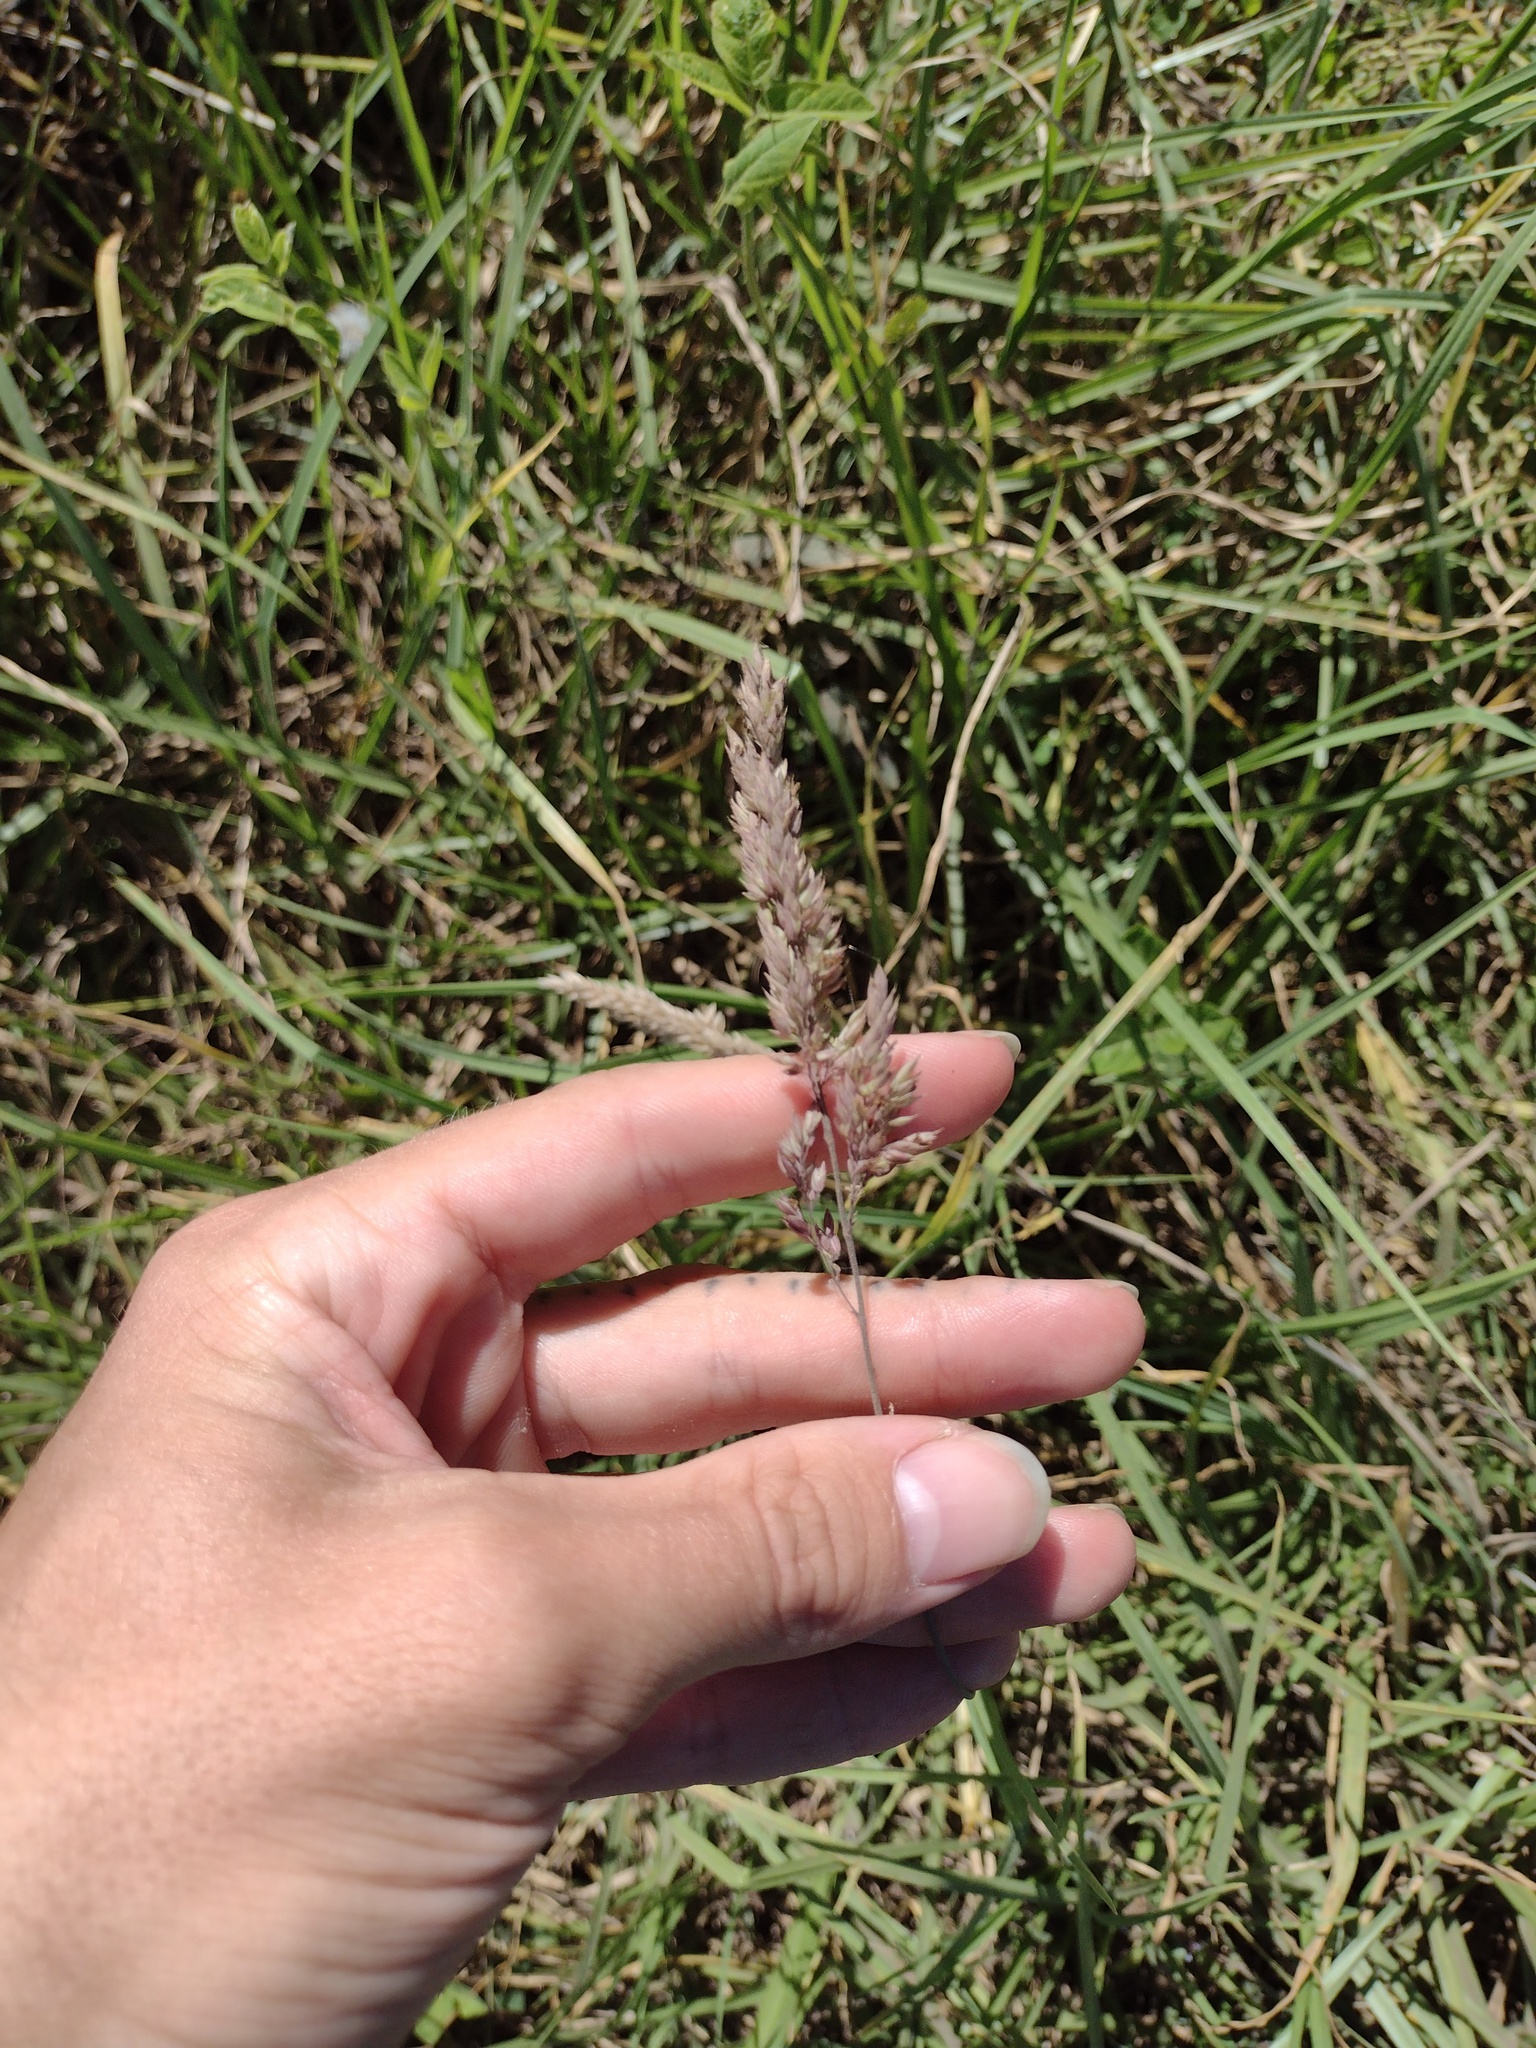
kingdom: Plantae
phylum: Tracheophyta
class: Liliopsida
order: Poales
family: Poaceae
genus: Holcus
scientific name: Holcus lanatus
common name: Yorkshire-fog
